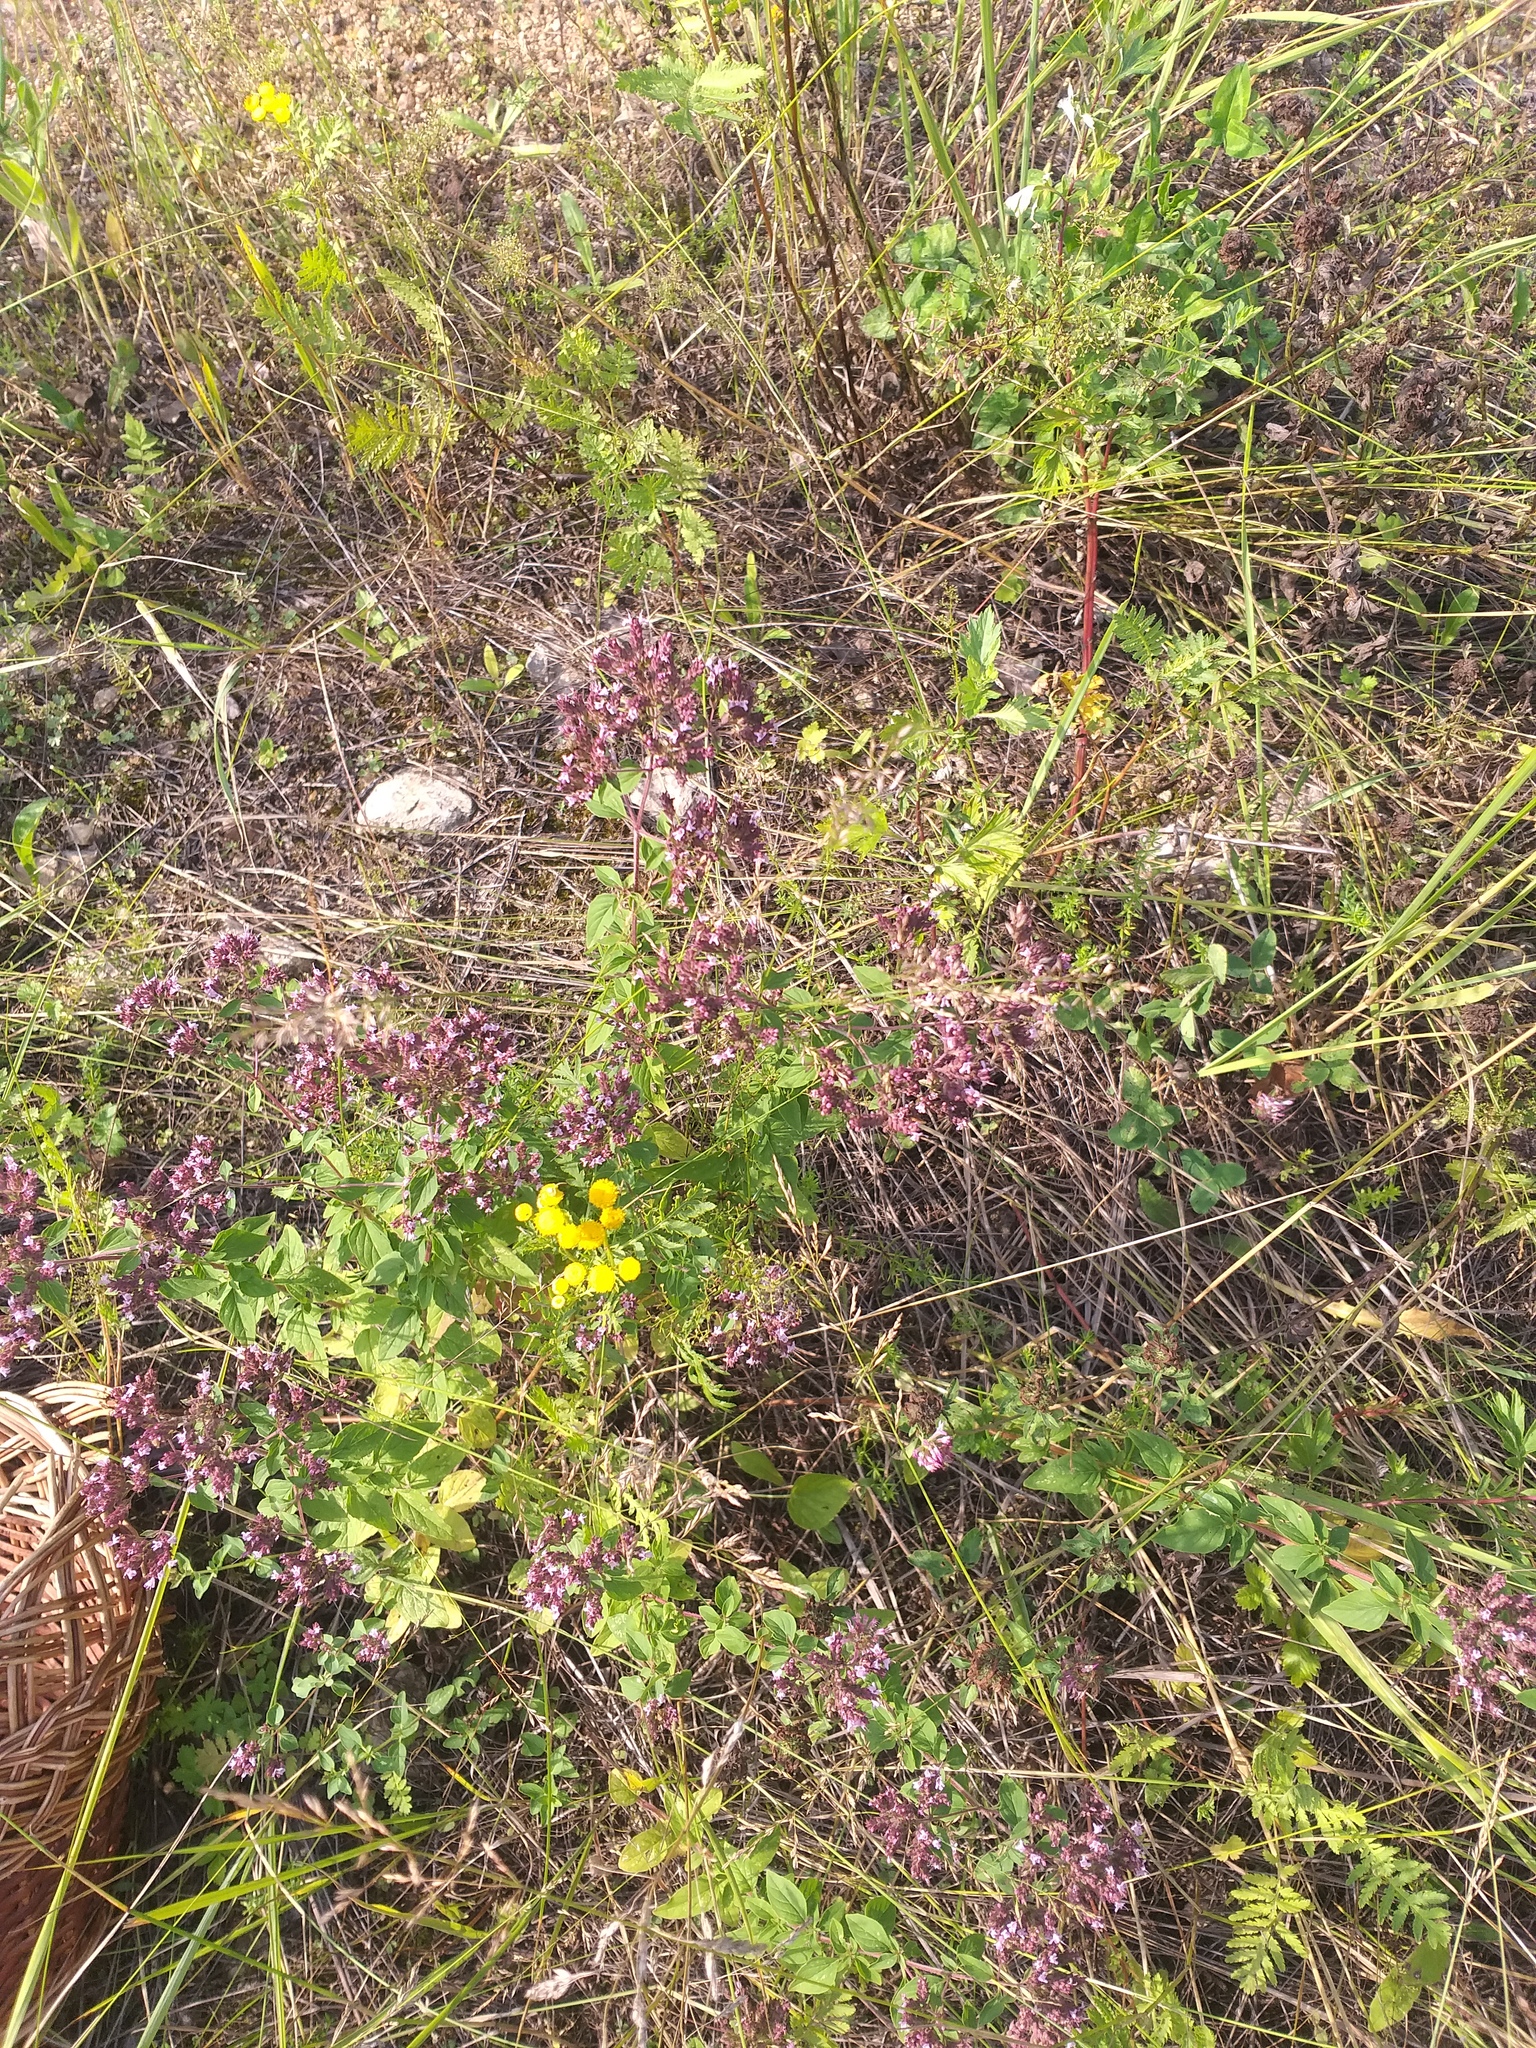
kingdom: Plantae
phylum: Tracheophyta
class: Magnoliopsida
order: Lamiales
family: Lamiaceae
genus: Origanum
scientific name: Origanum vulgare
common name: Wild marjoram
